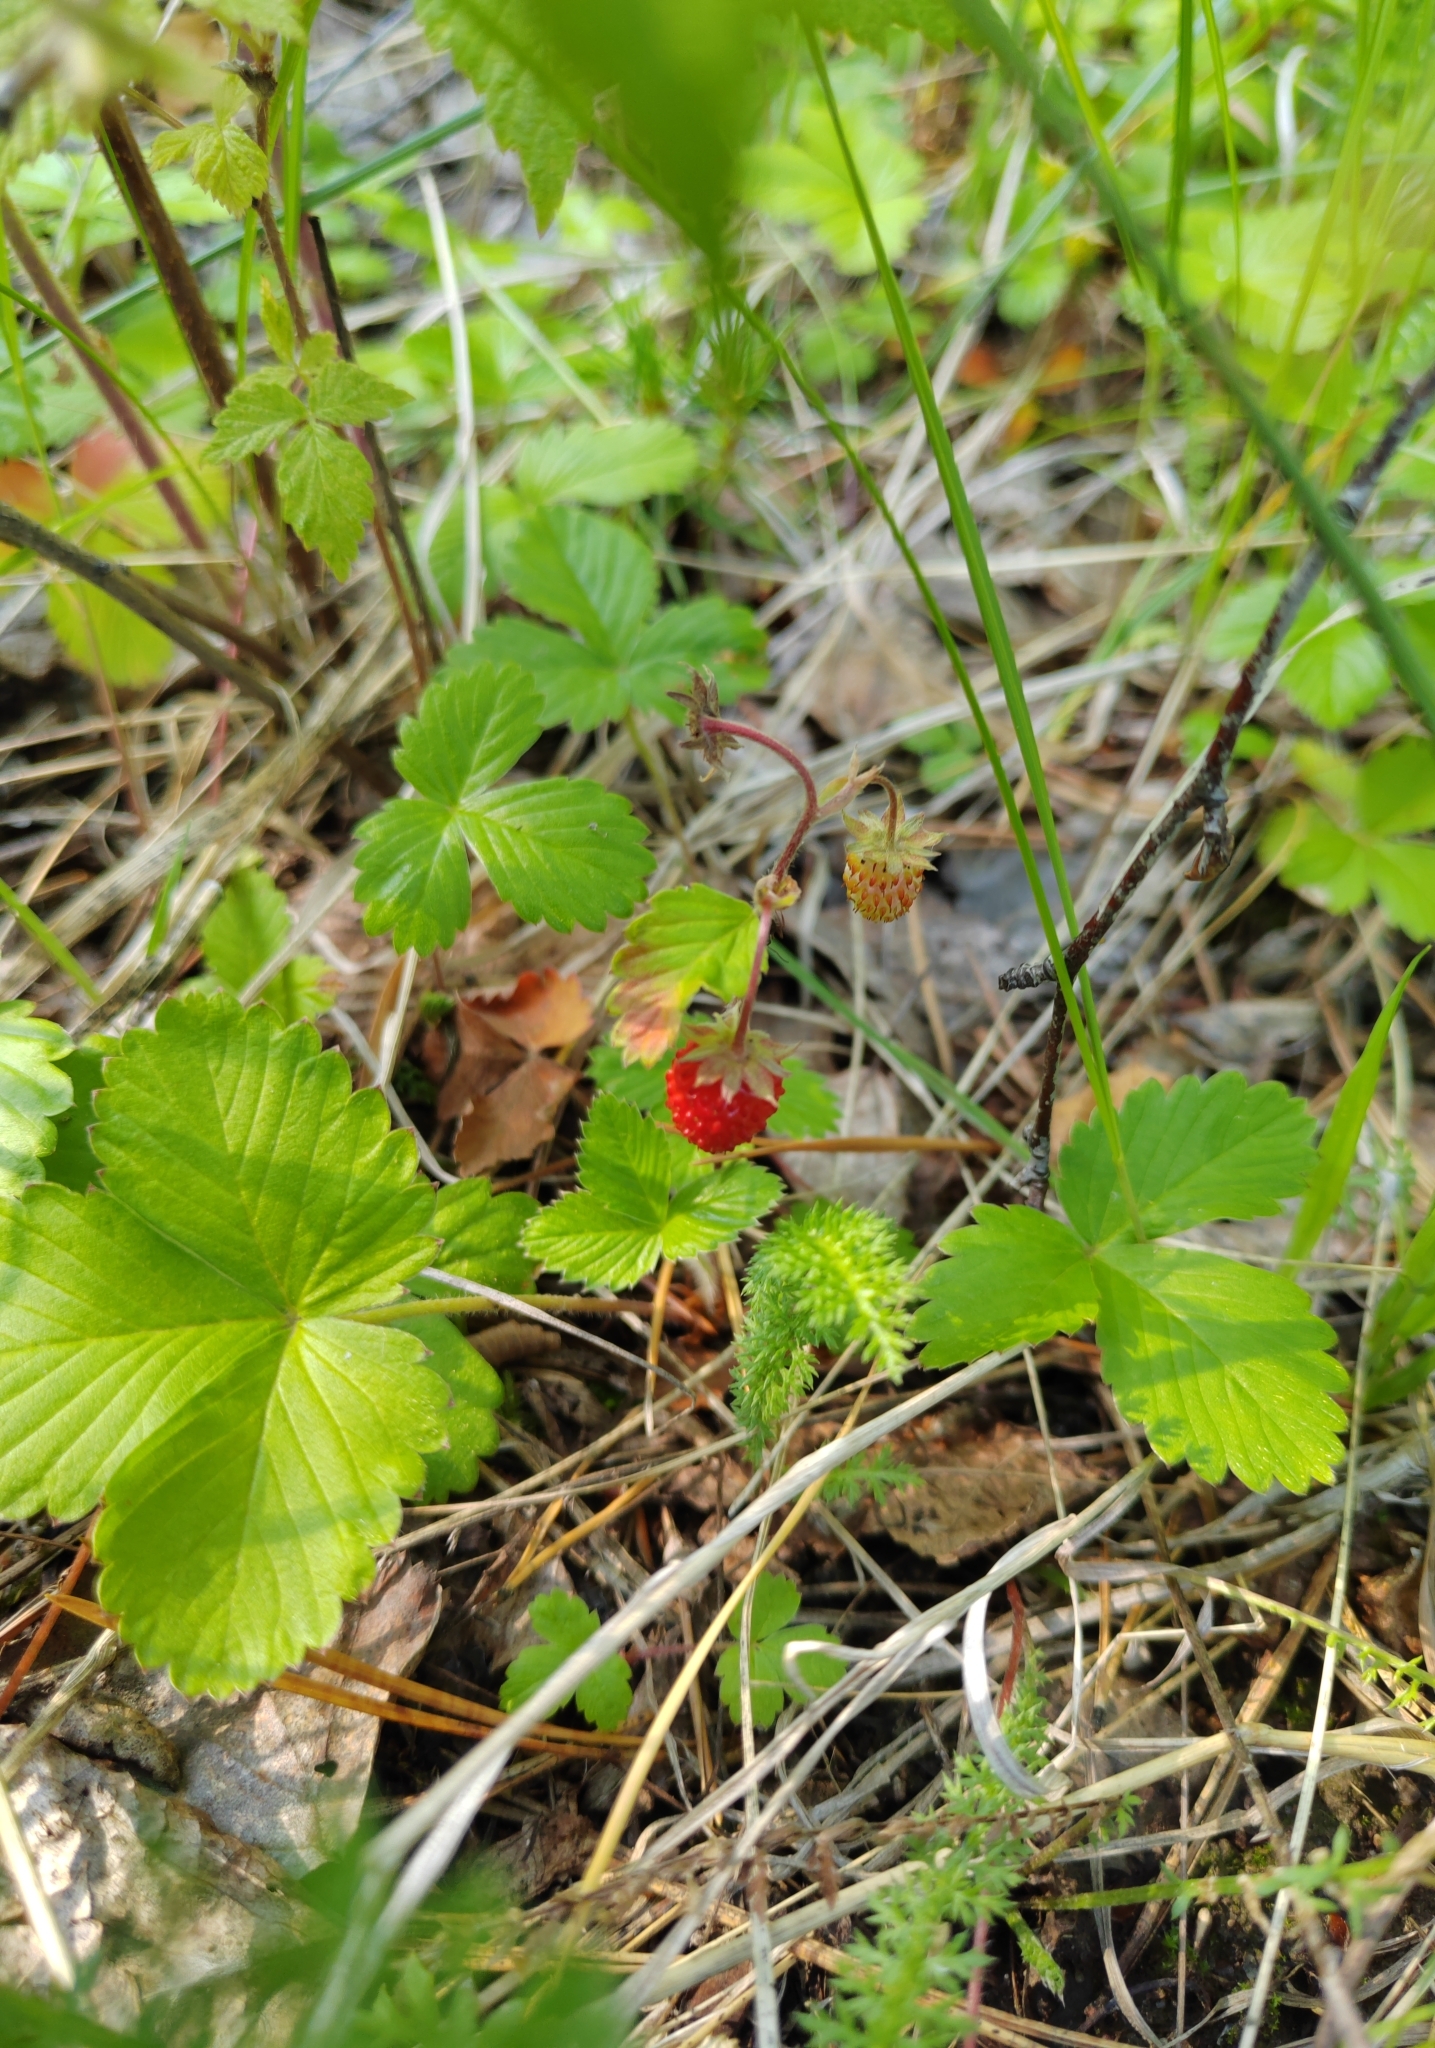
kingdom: Plantae
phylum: Tracheophyta
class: Magnoliopsida
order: Rosales
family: Rosaceae
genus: Fragaria
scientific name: Fragaria vesca
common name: Wild strawberry
